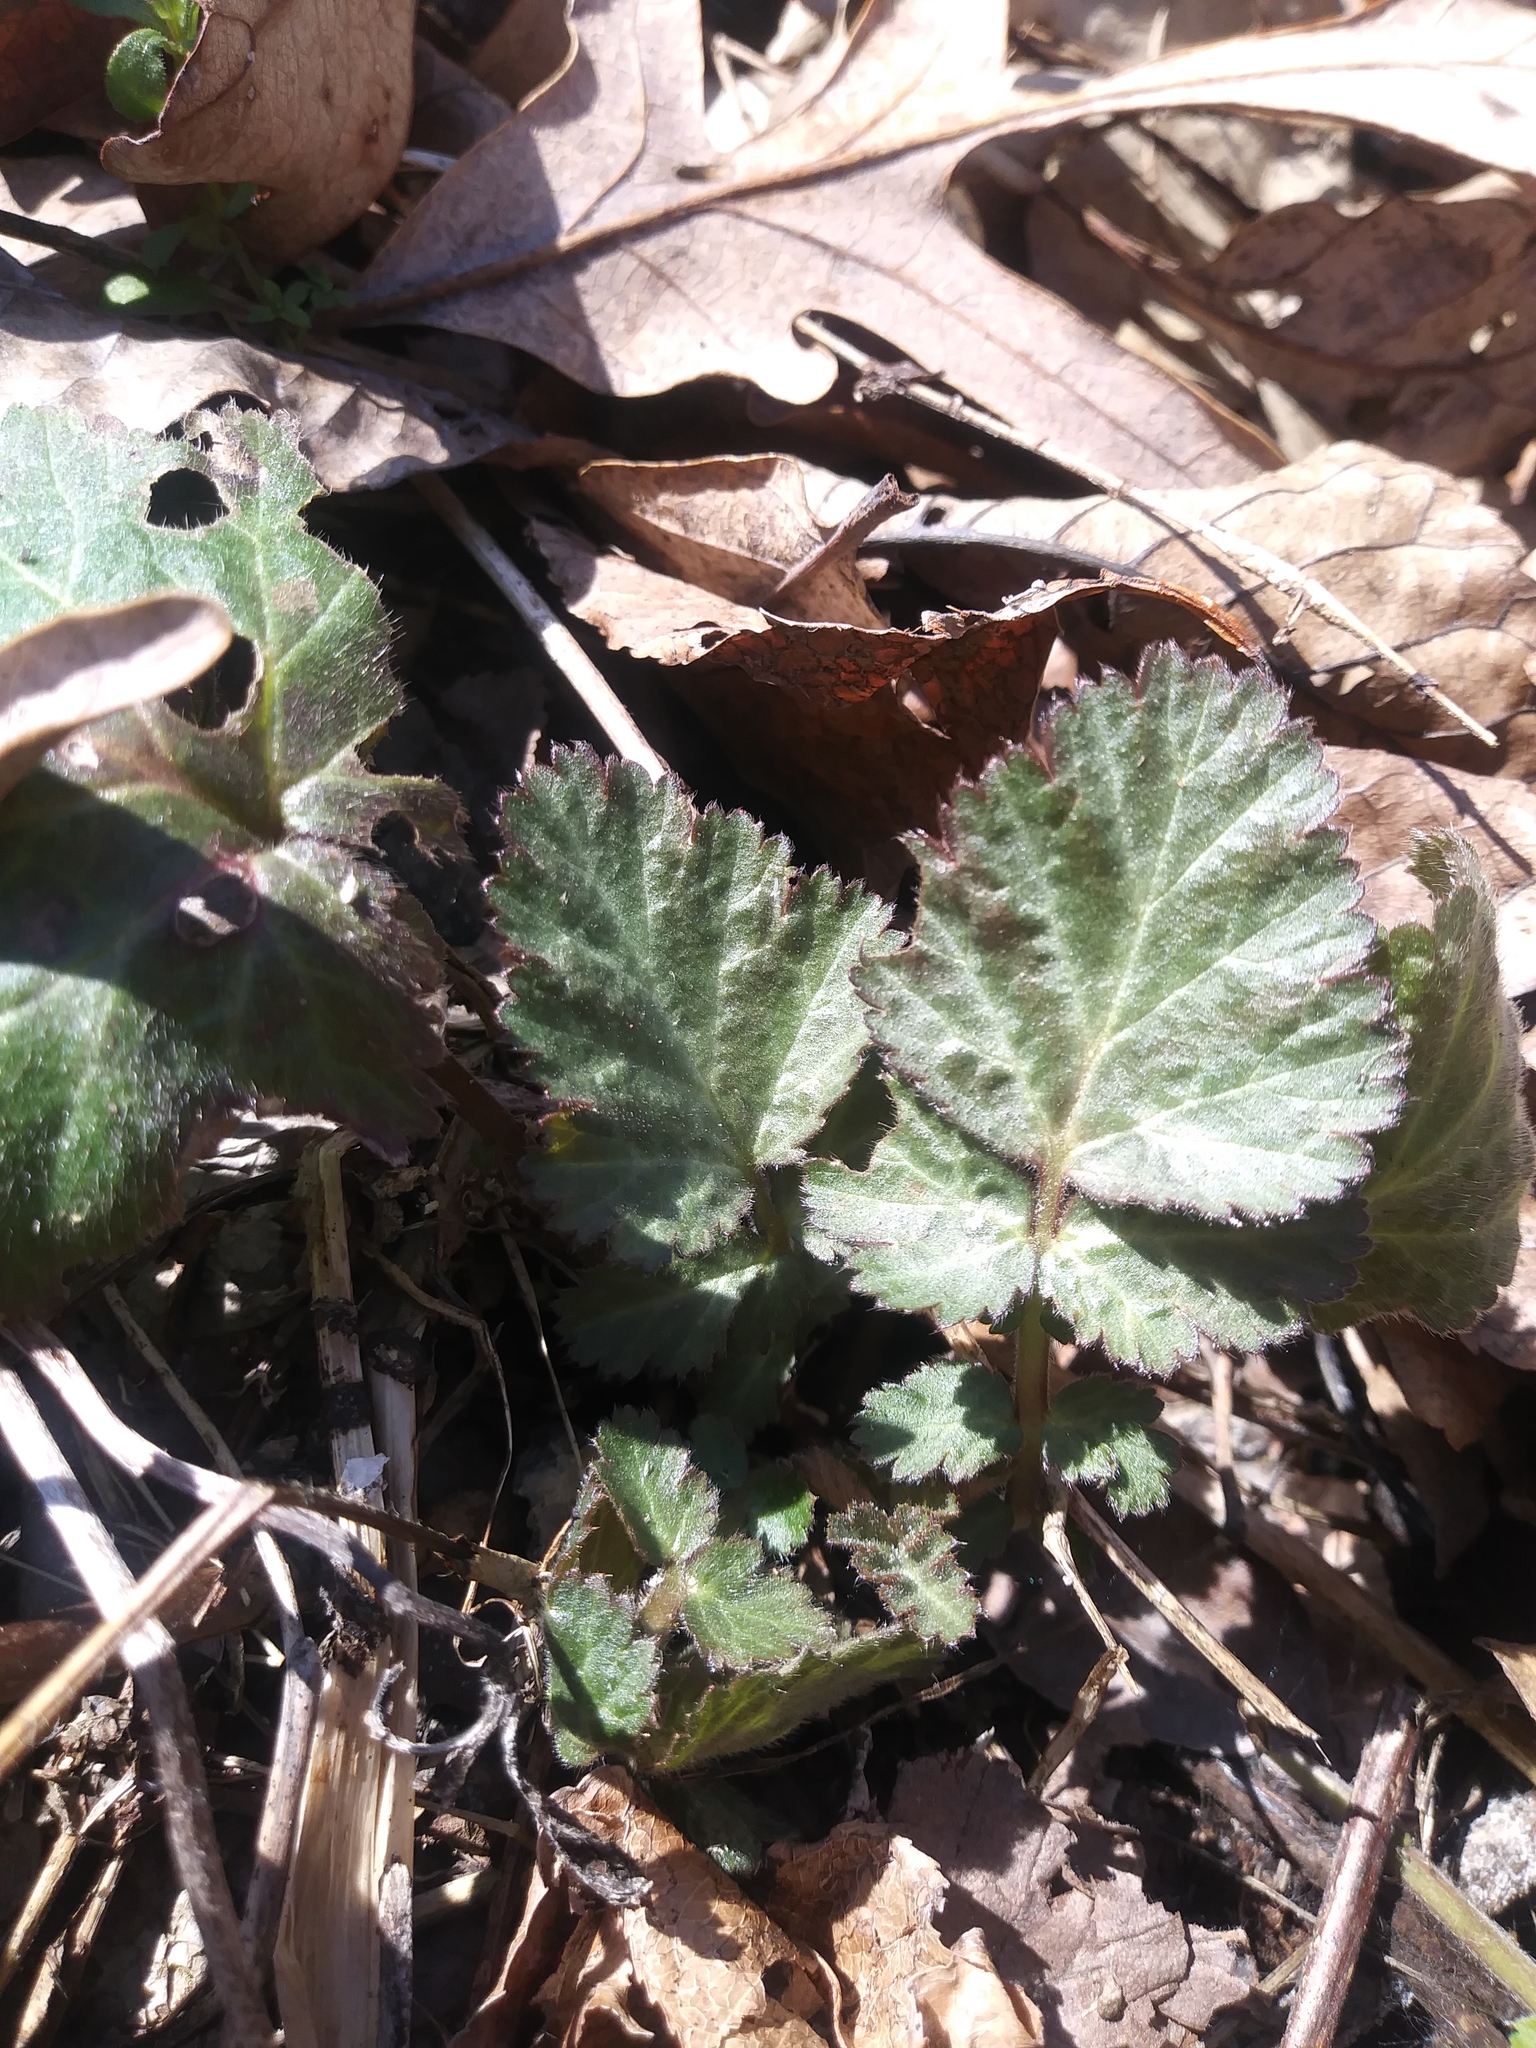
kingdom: Plantae
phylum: Tracheophyta
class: Magnoliopsida
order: Rosales
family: Rosaceae
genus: Geum
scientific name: Geum canadense
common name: White avens
